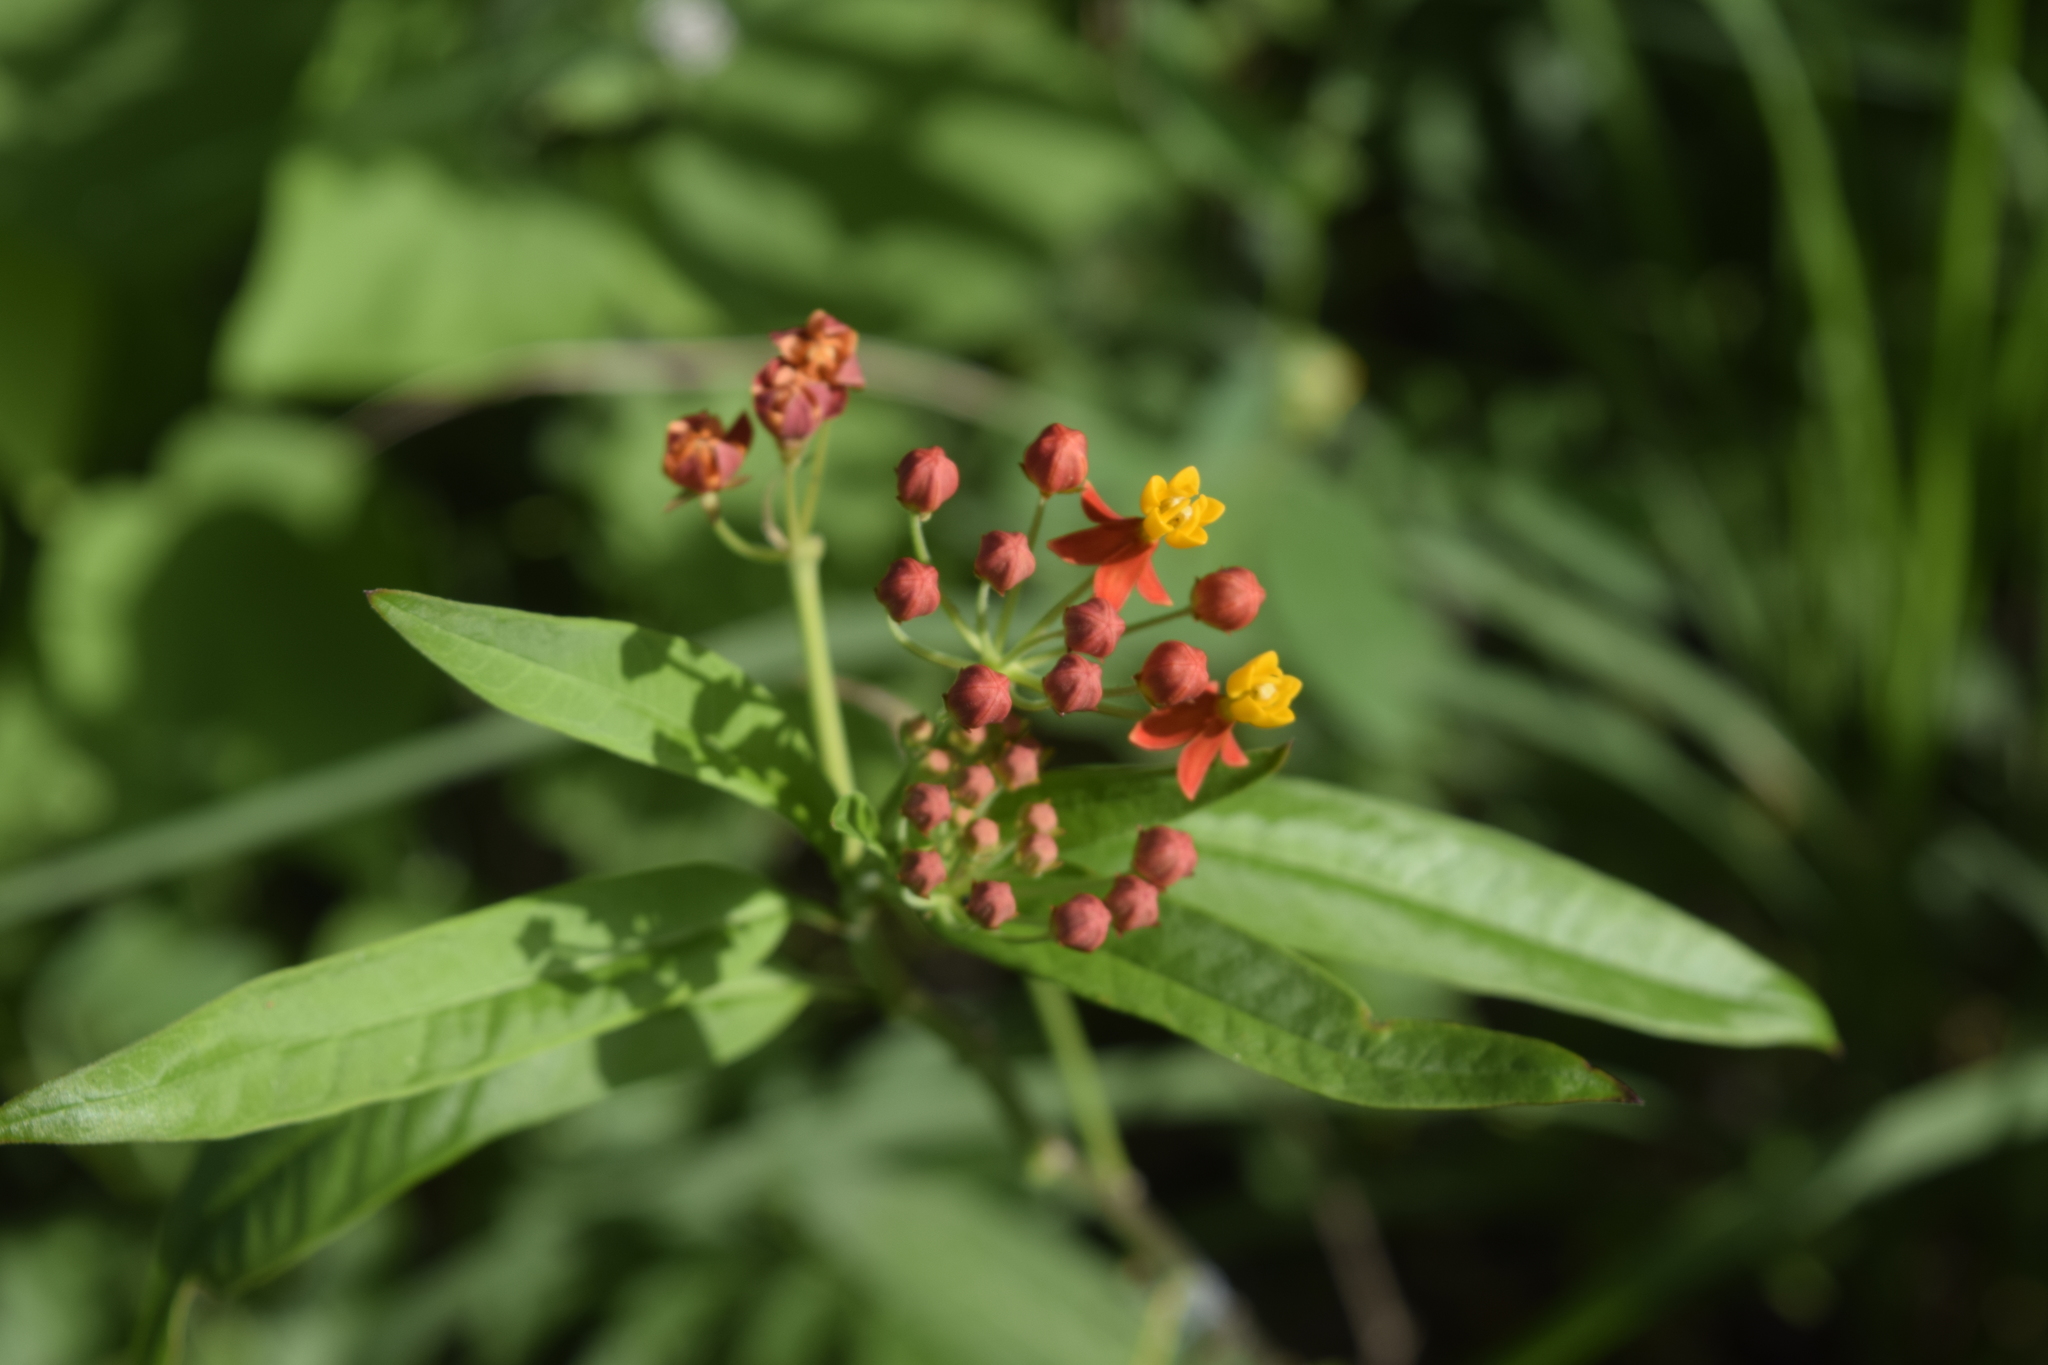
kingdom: Plantae
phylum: Tracheophyta
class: Magnoliopsida
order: Gentianales
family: Apocynaceae
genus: Asclepias
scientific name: Asclepias curassavica
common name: Bloodflower
